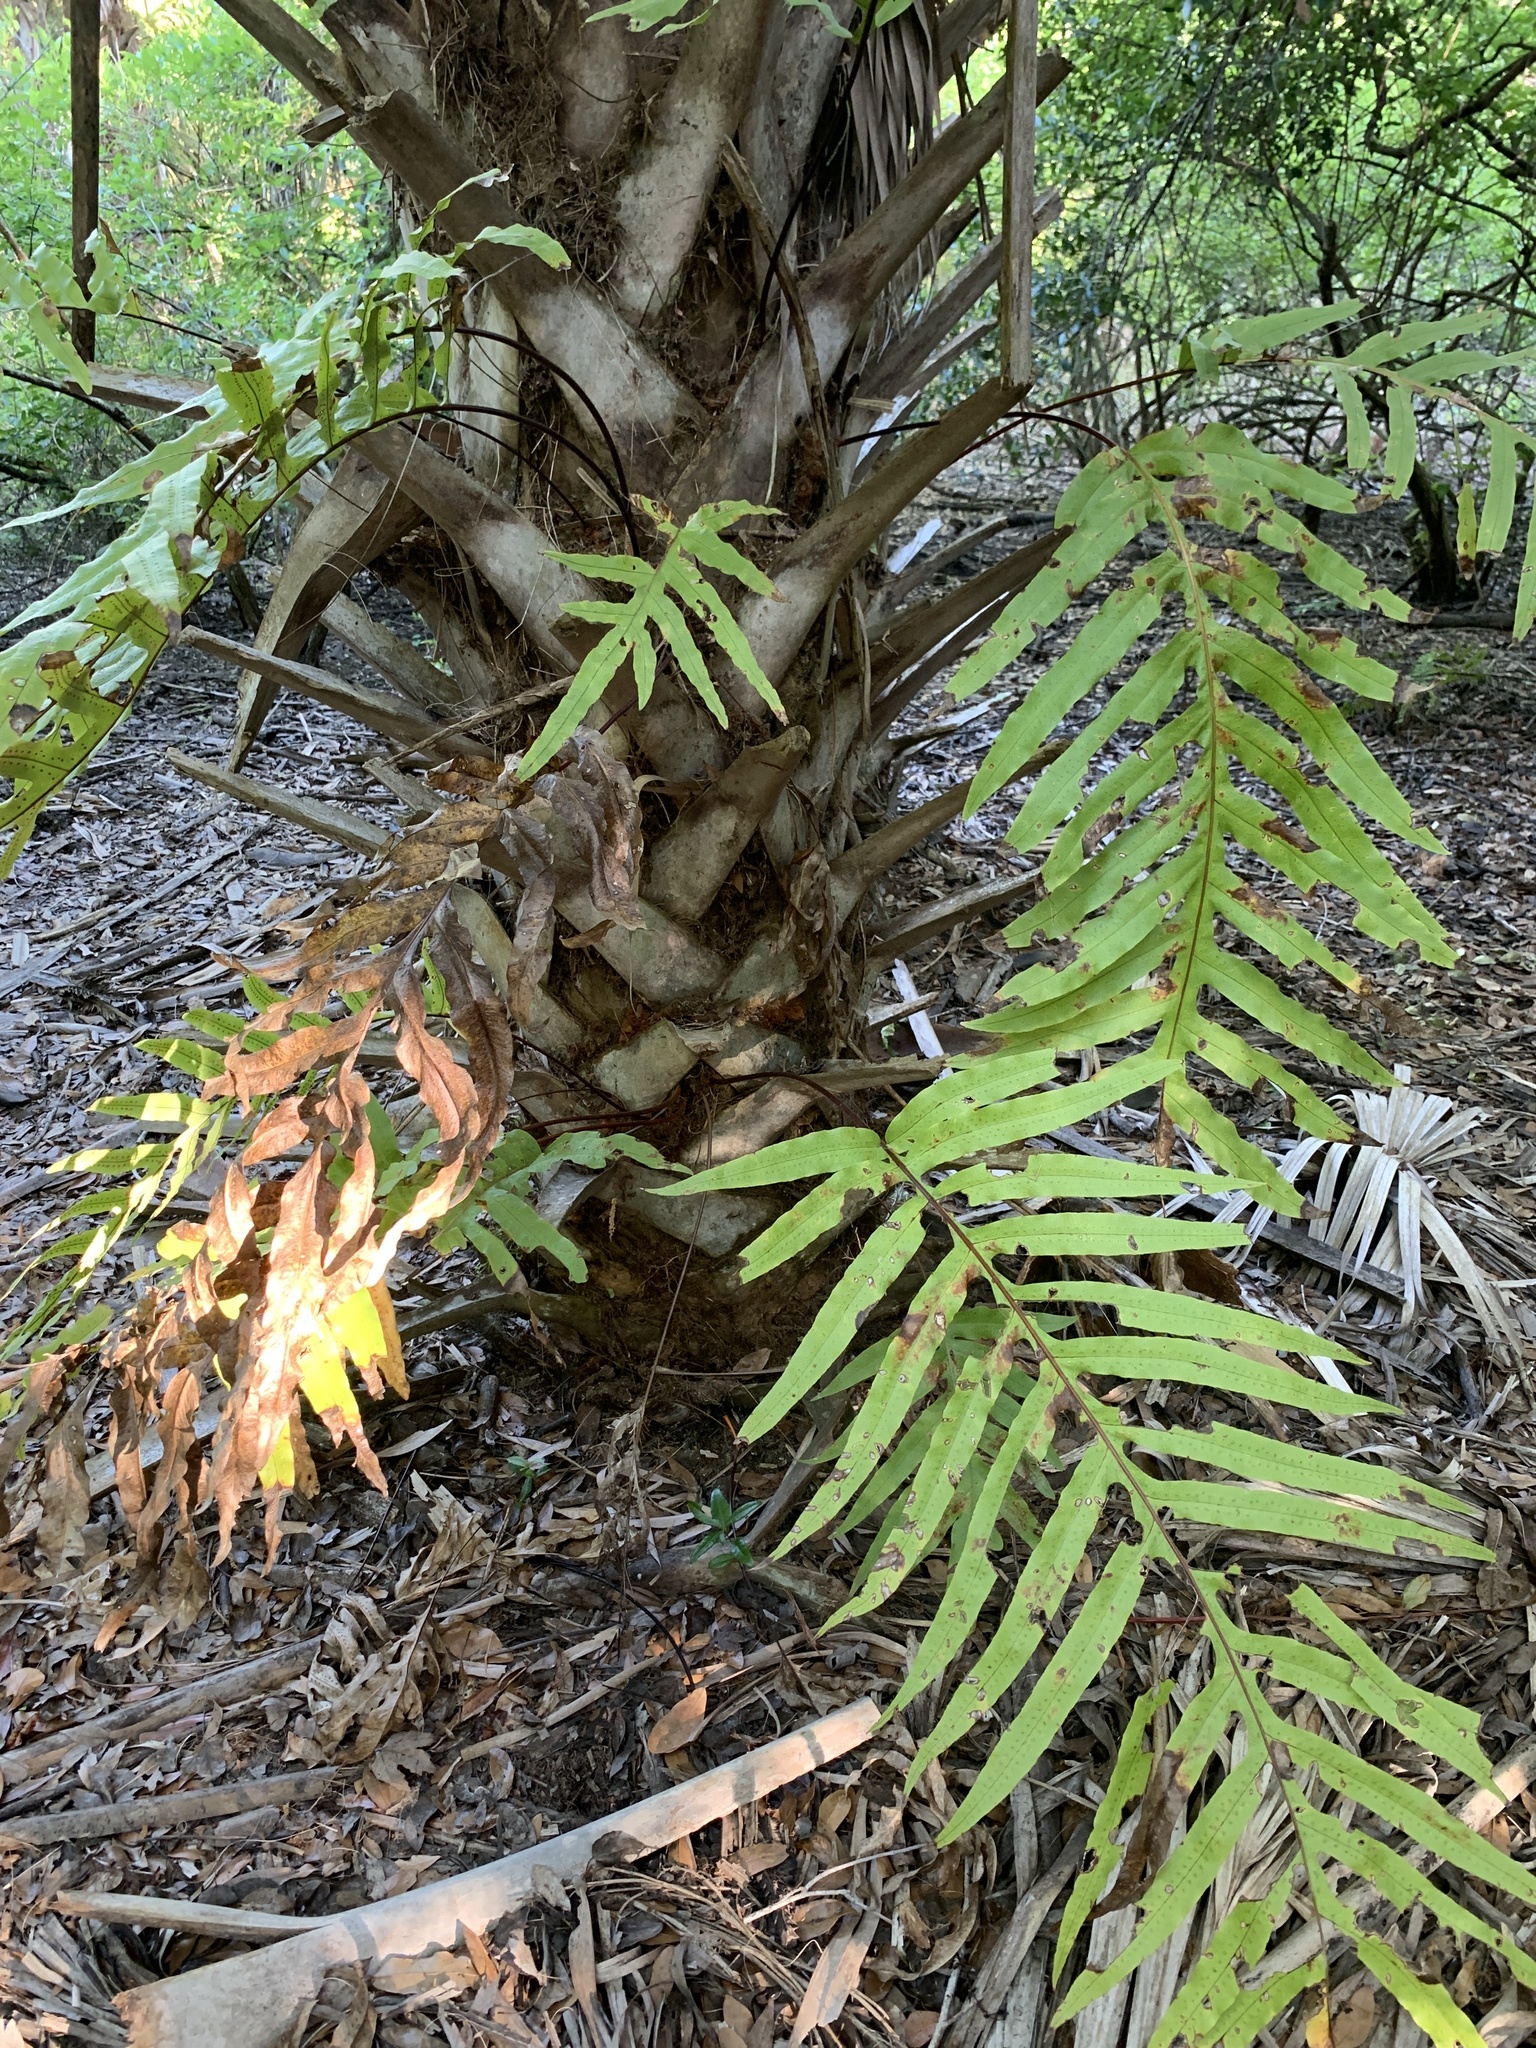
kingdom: Plantae
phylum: Tracheophyta
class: Polypodiopsida
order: Polypodiales
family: Polypodiaceae
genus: Phlebodium
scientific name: Phlebodium aureum
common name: Gold-foot fern
